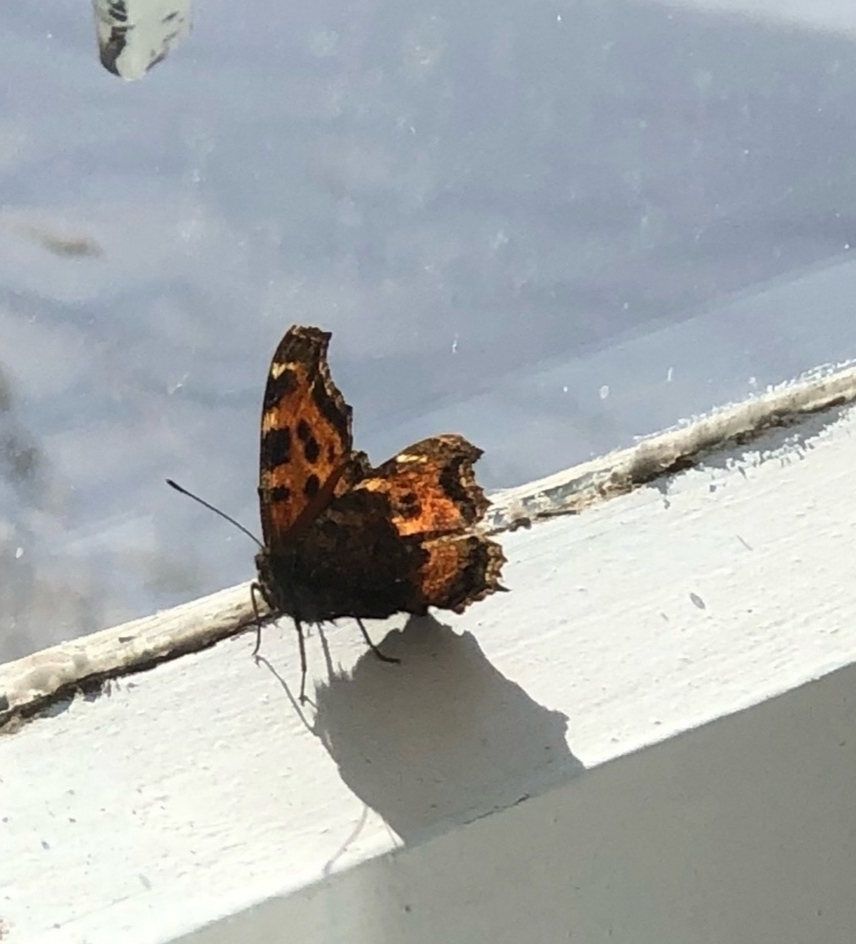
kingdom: Animalia
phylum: Arthropoda
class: Insecta
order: Lepidoptera
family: Nymphalidae
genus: Nymphalis
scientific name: Nymphalis xanthomelas
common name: Scarce tortoiseshell
